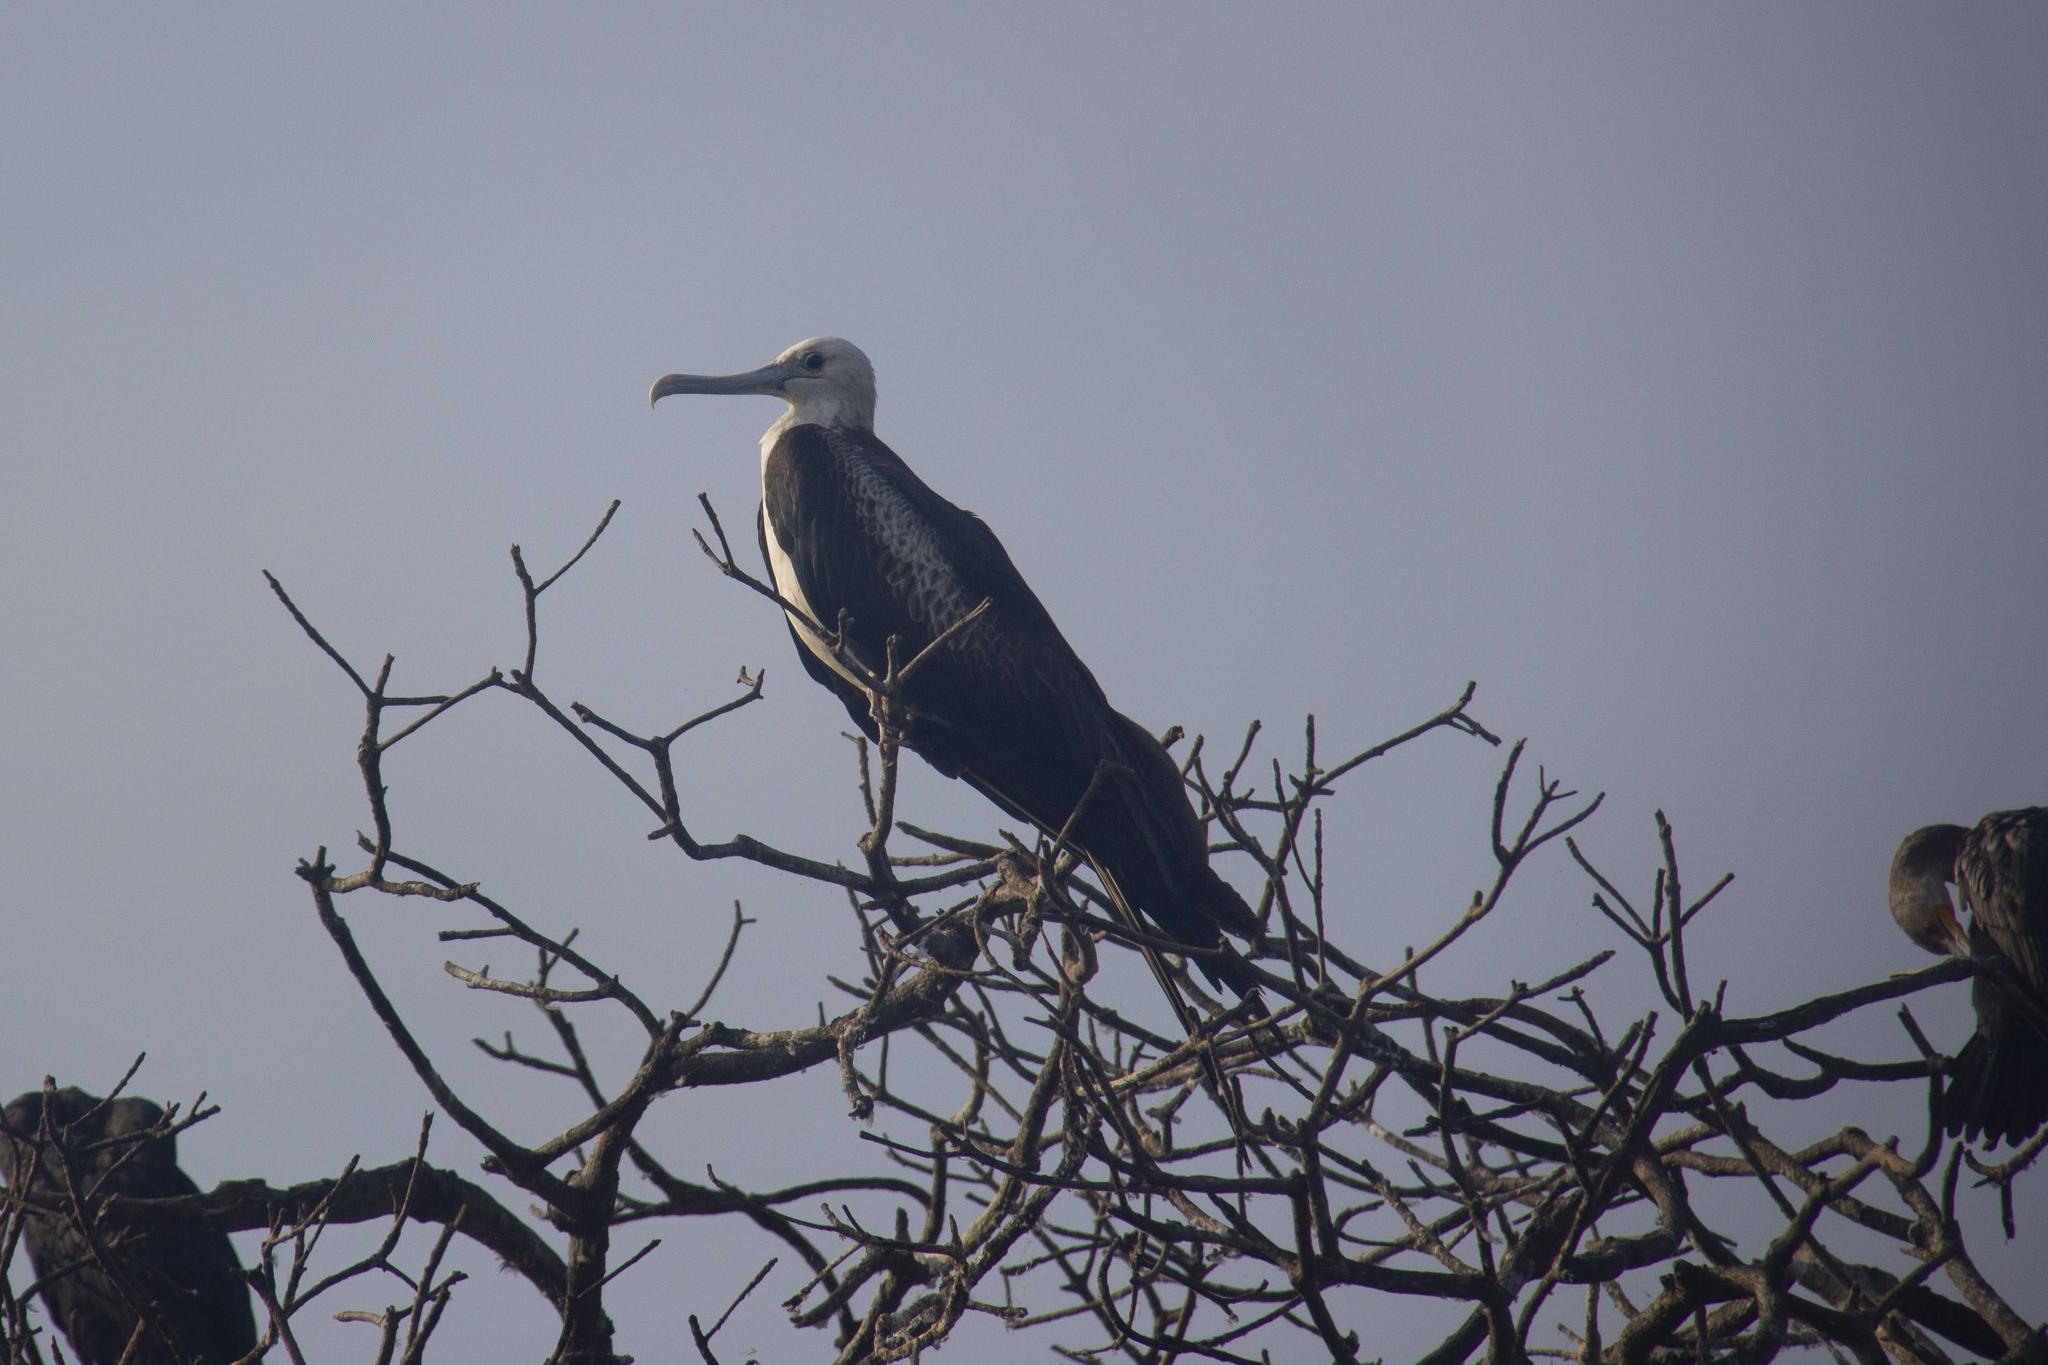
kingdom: Animalia
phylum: Chordata
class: Aves
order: Suliformes
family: Fregatidae
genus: Fregata
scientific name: Fregata magnificens
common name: Magnificent frigatebird
